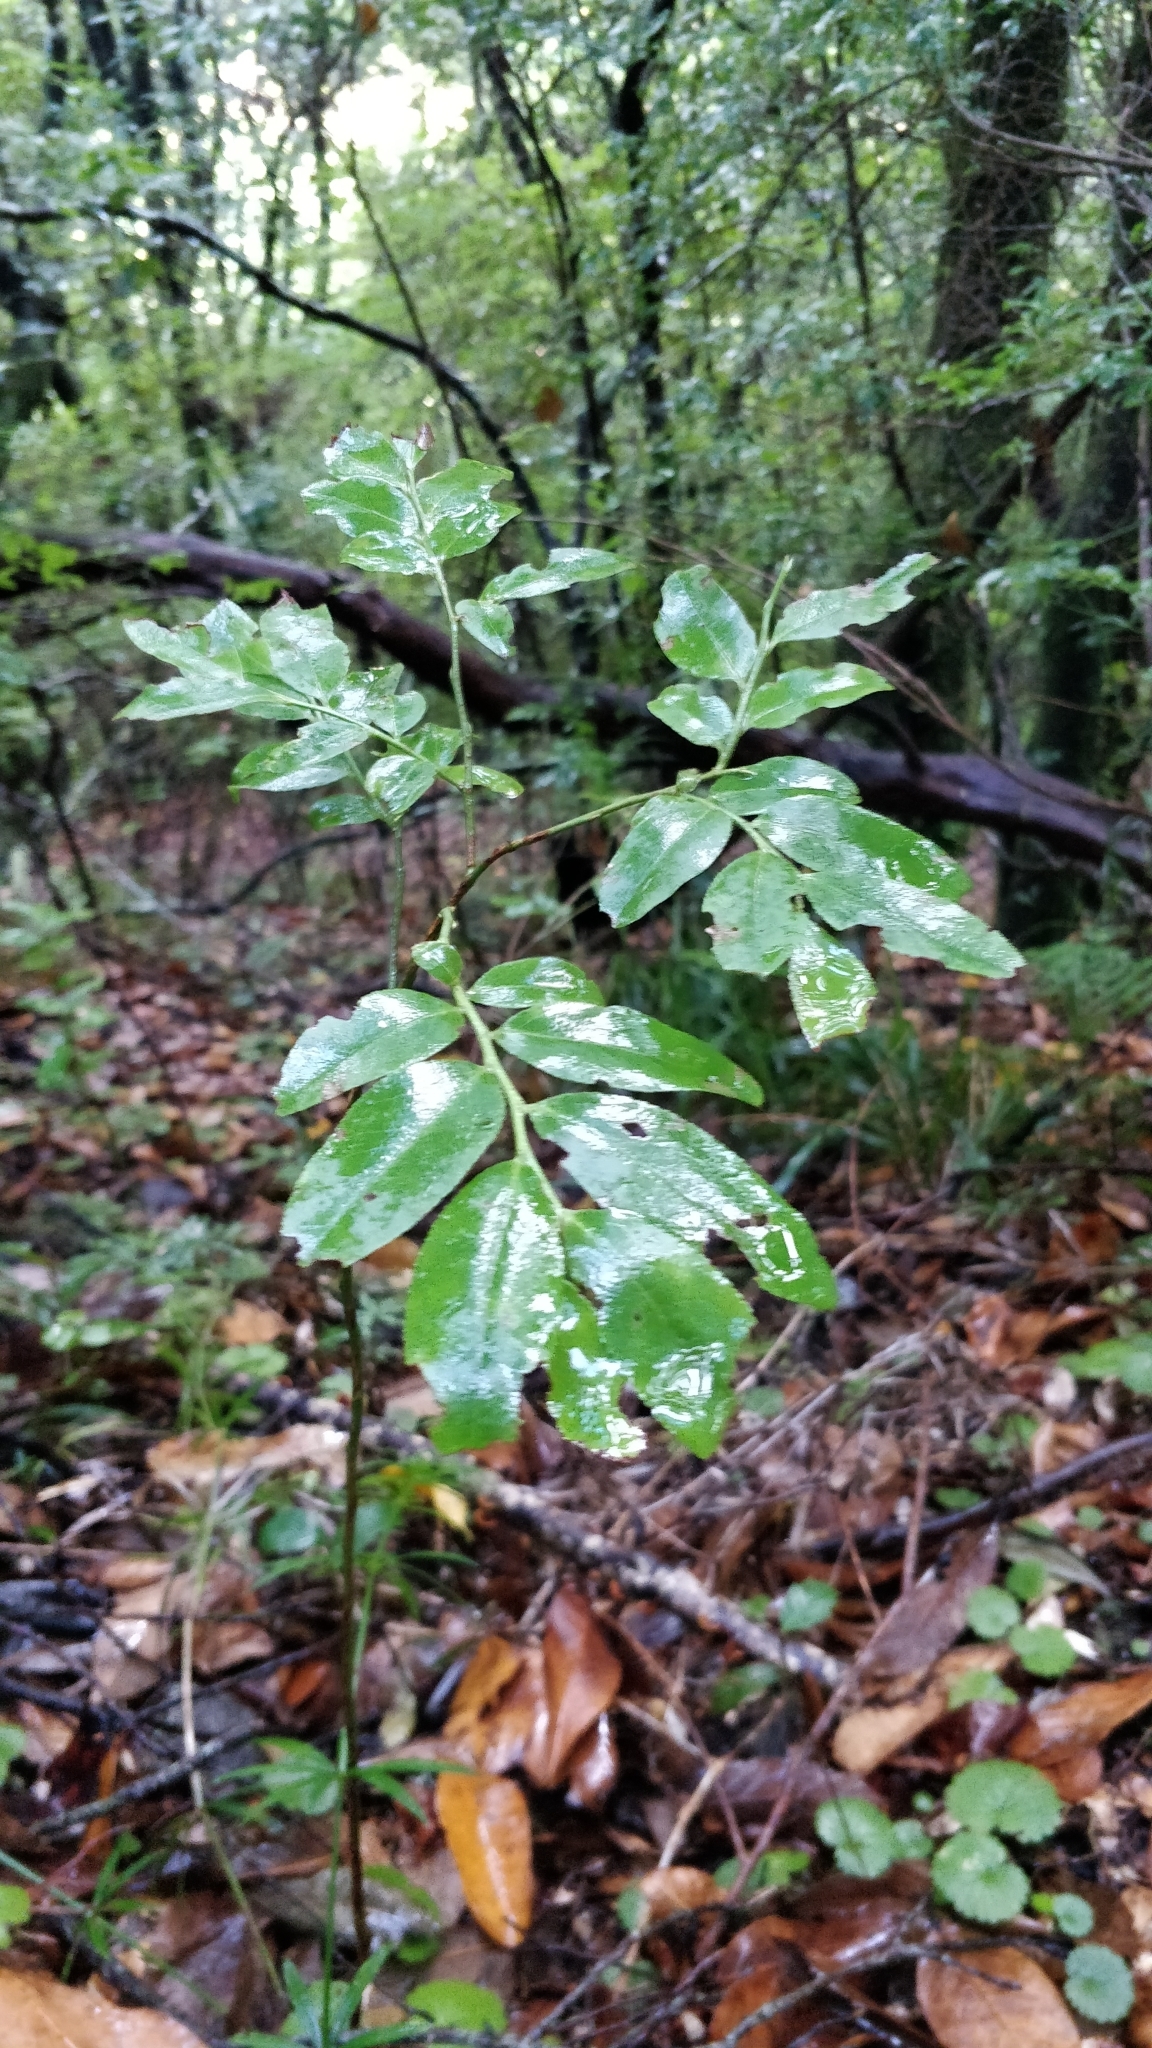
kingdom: Plantae
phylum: Tracheophyta
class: Magnoliopsida
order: Ericales
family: Ericaceae
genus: Vaccinium
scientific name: Vaccinium padifolium
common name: Madeiran blueberry
